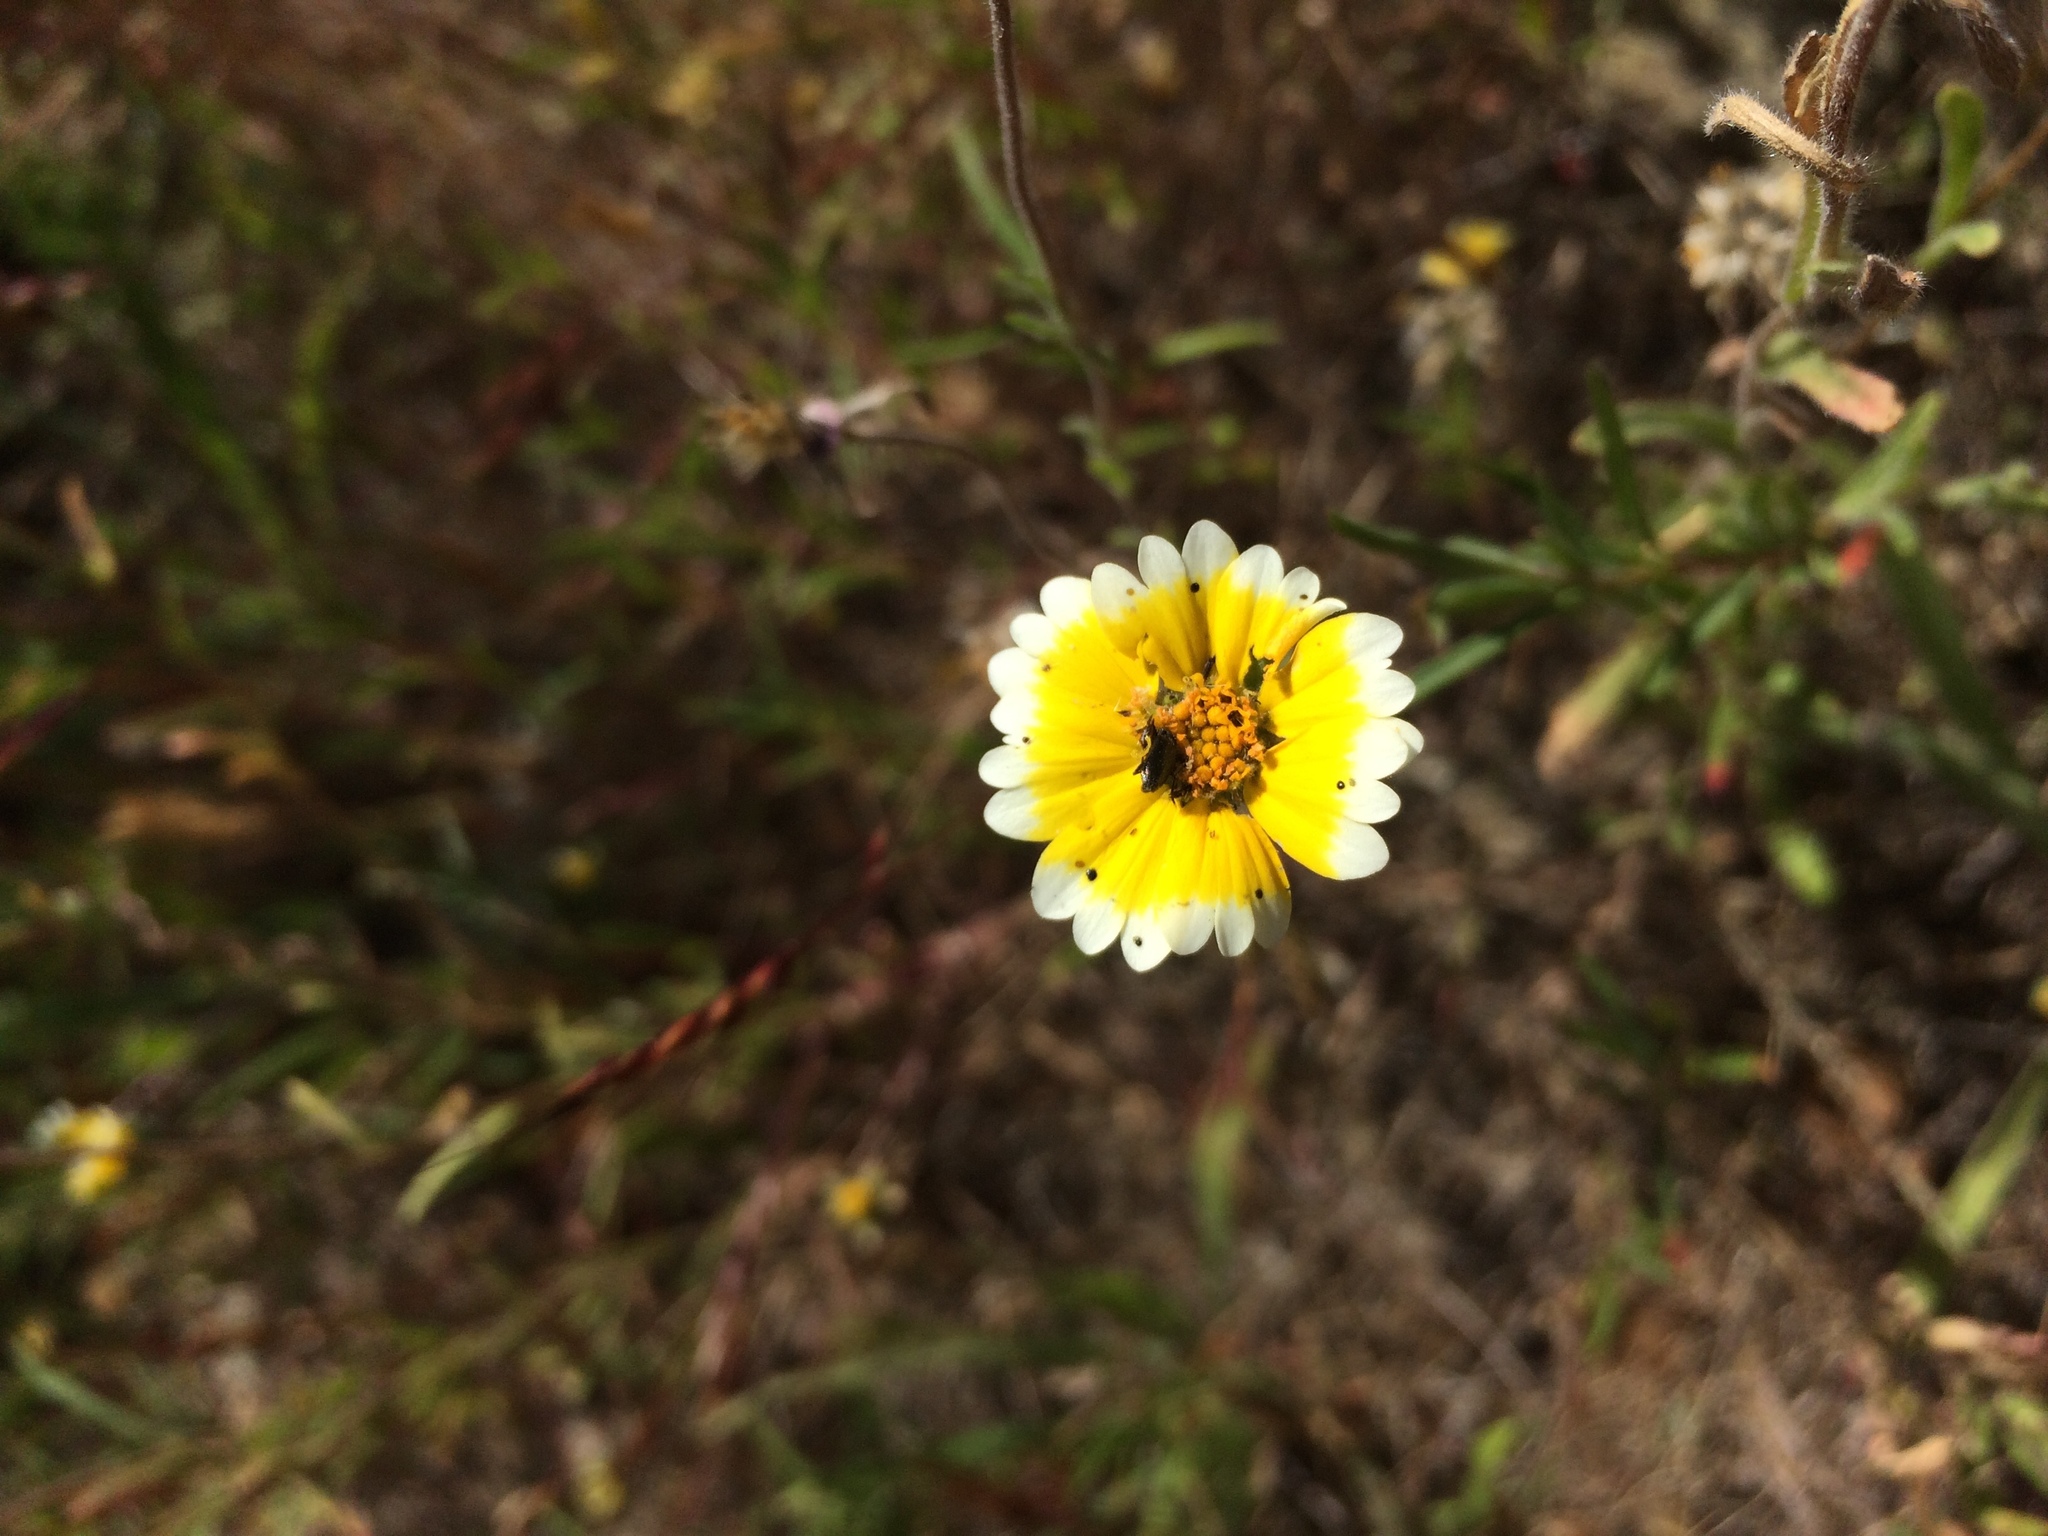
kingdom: Plantae
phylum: Tracheophyta
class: Magnoliopsida
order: Asterales
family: Asteraceae
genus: Layia
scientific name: Layia platyglossa
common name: Tidy-tips
